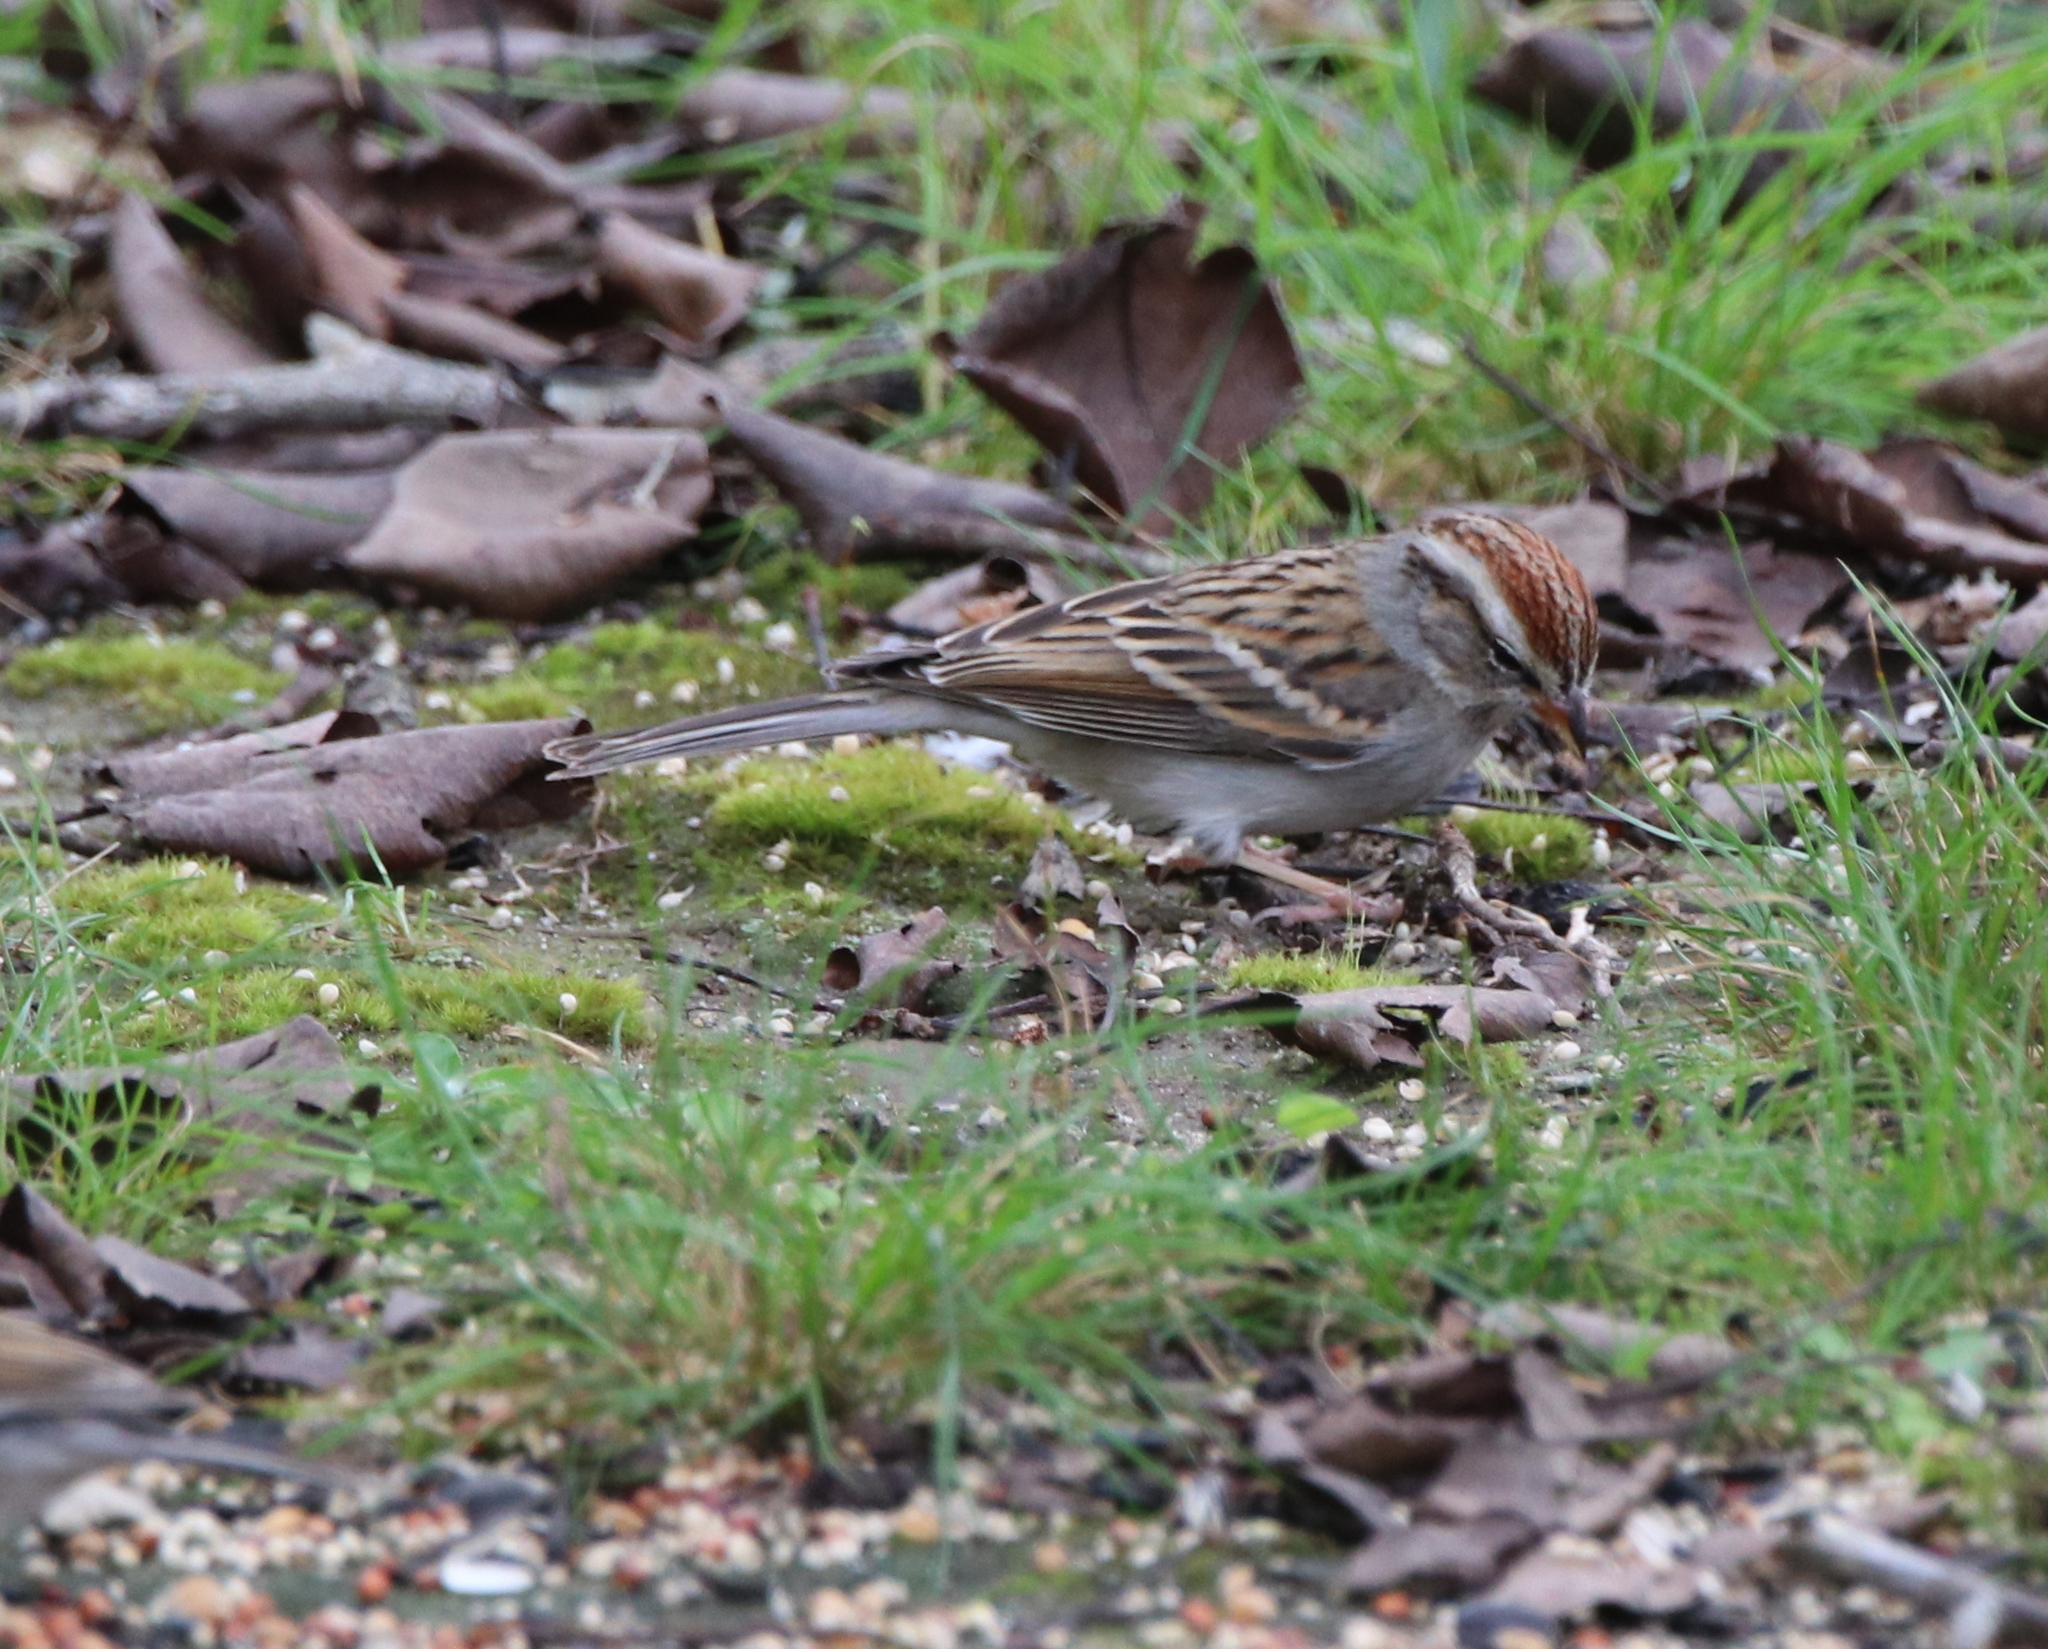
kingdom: Animalia
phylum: Chordata
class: Aves
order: Passeriformes
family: Passerellidae
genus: Spizella
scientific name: Spizella passerina
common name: Chipping sparrow
